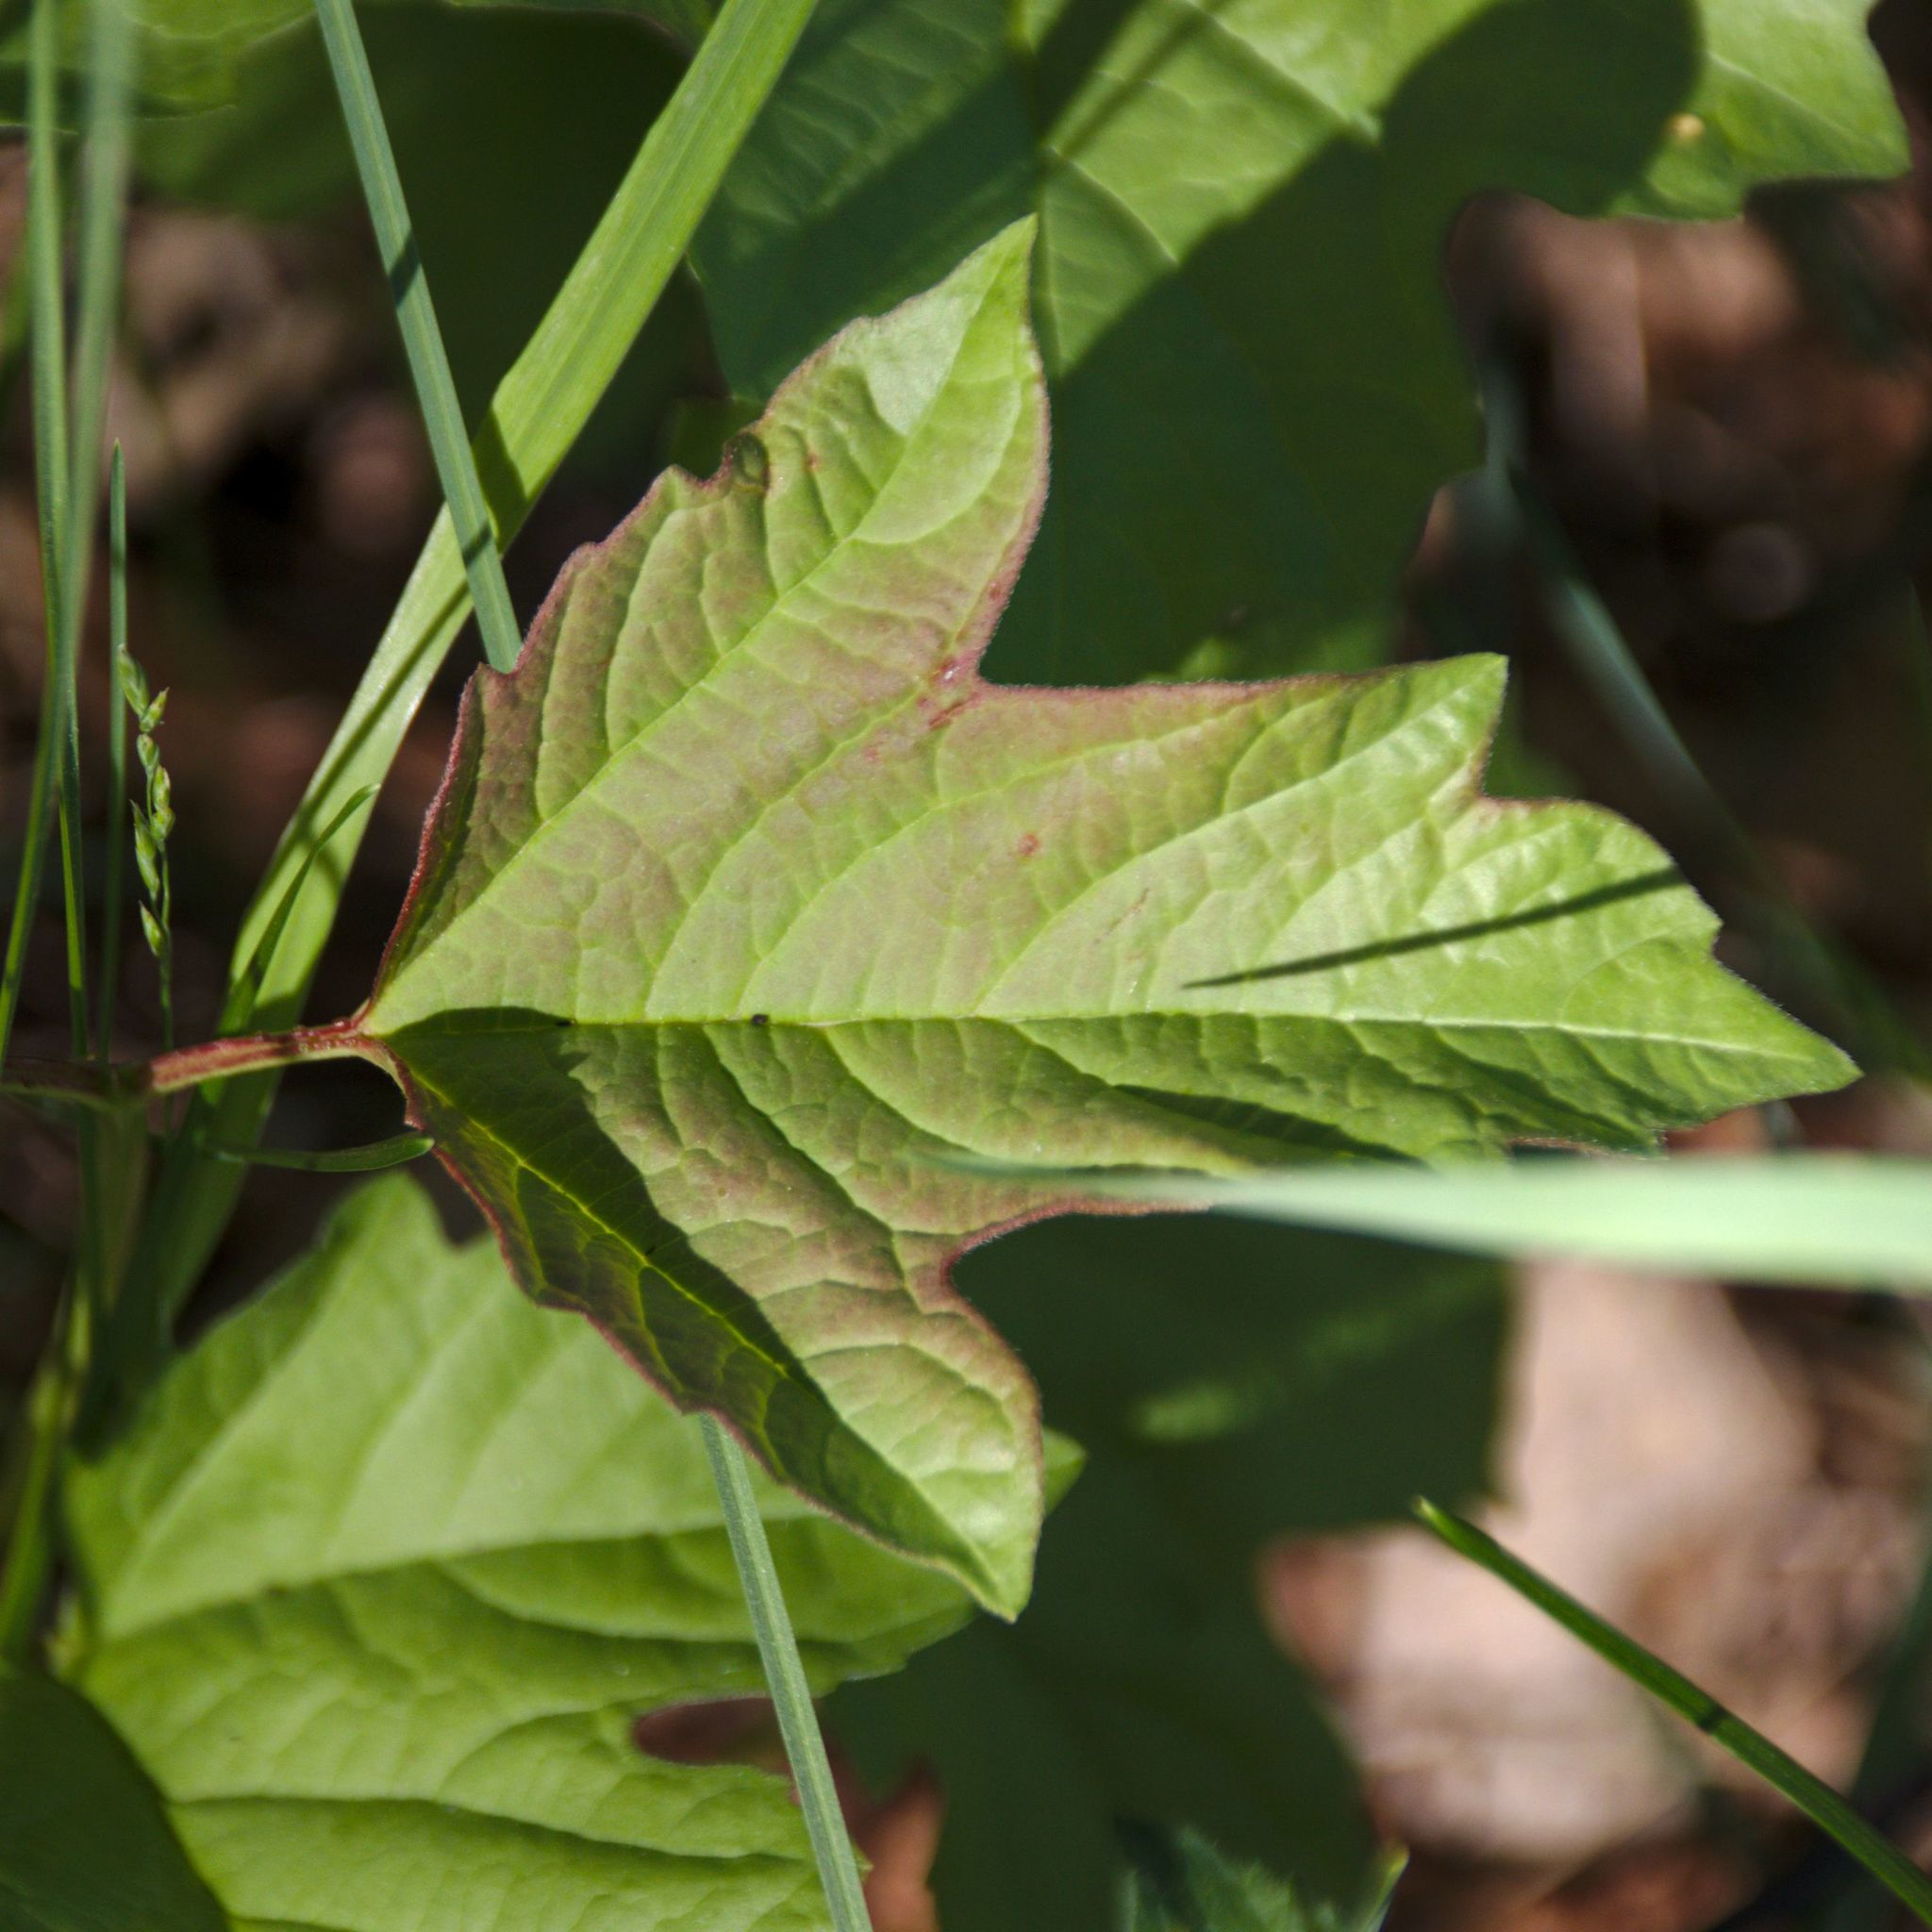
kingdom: Plantae
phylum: Tracheophyta
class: Magnoliopsida
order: Dipsacales
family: Viburnaceae
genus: Viburnum
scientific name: Viburnum opulus
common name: Guelder-rose
